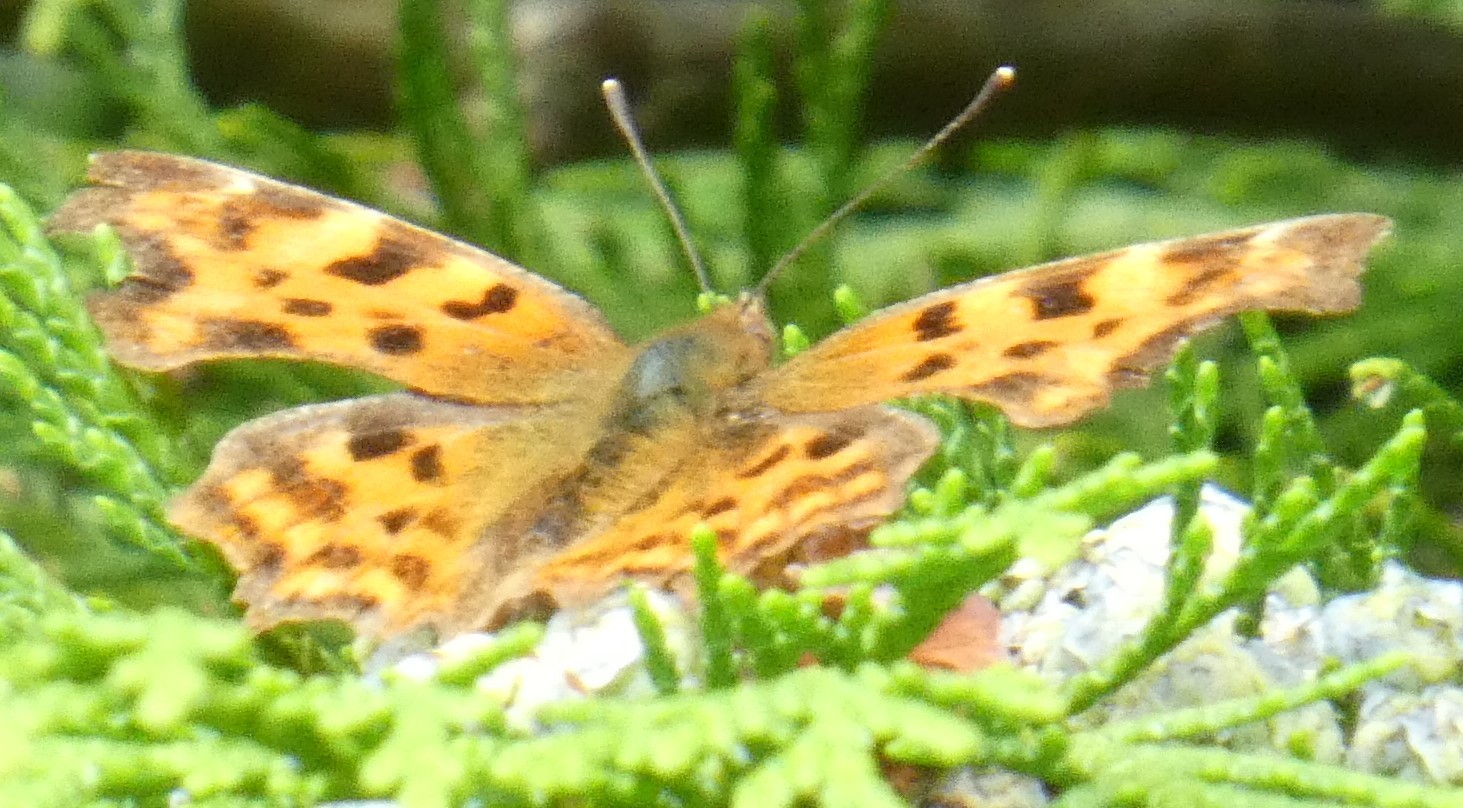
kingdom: Animalia
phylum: Arthropoda
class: Insecta
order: Lepidoptera
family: Nymphalidae
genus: Polygonia
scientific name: Polygonia c-album
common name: Comma
